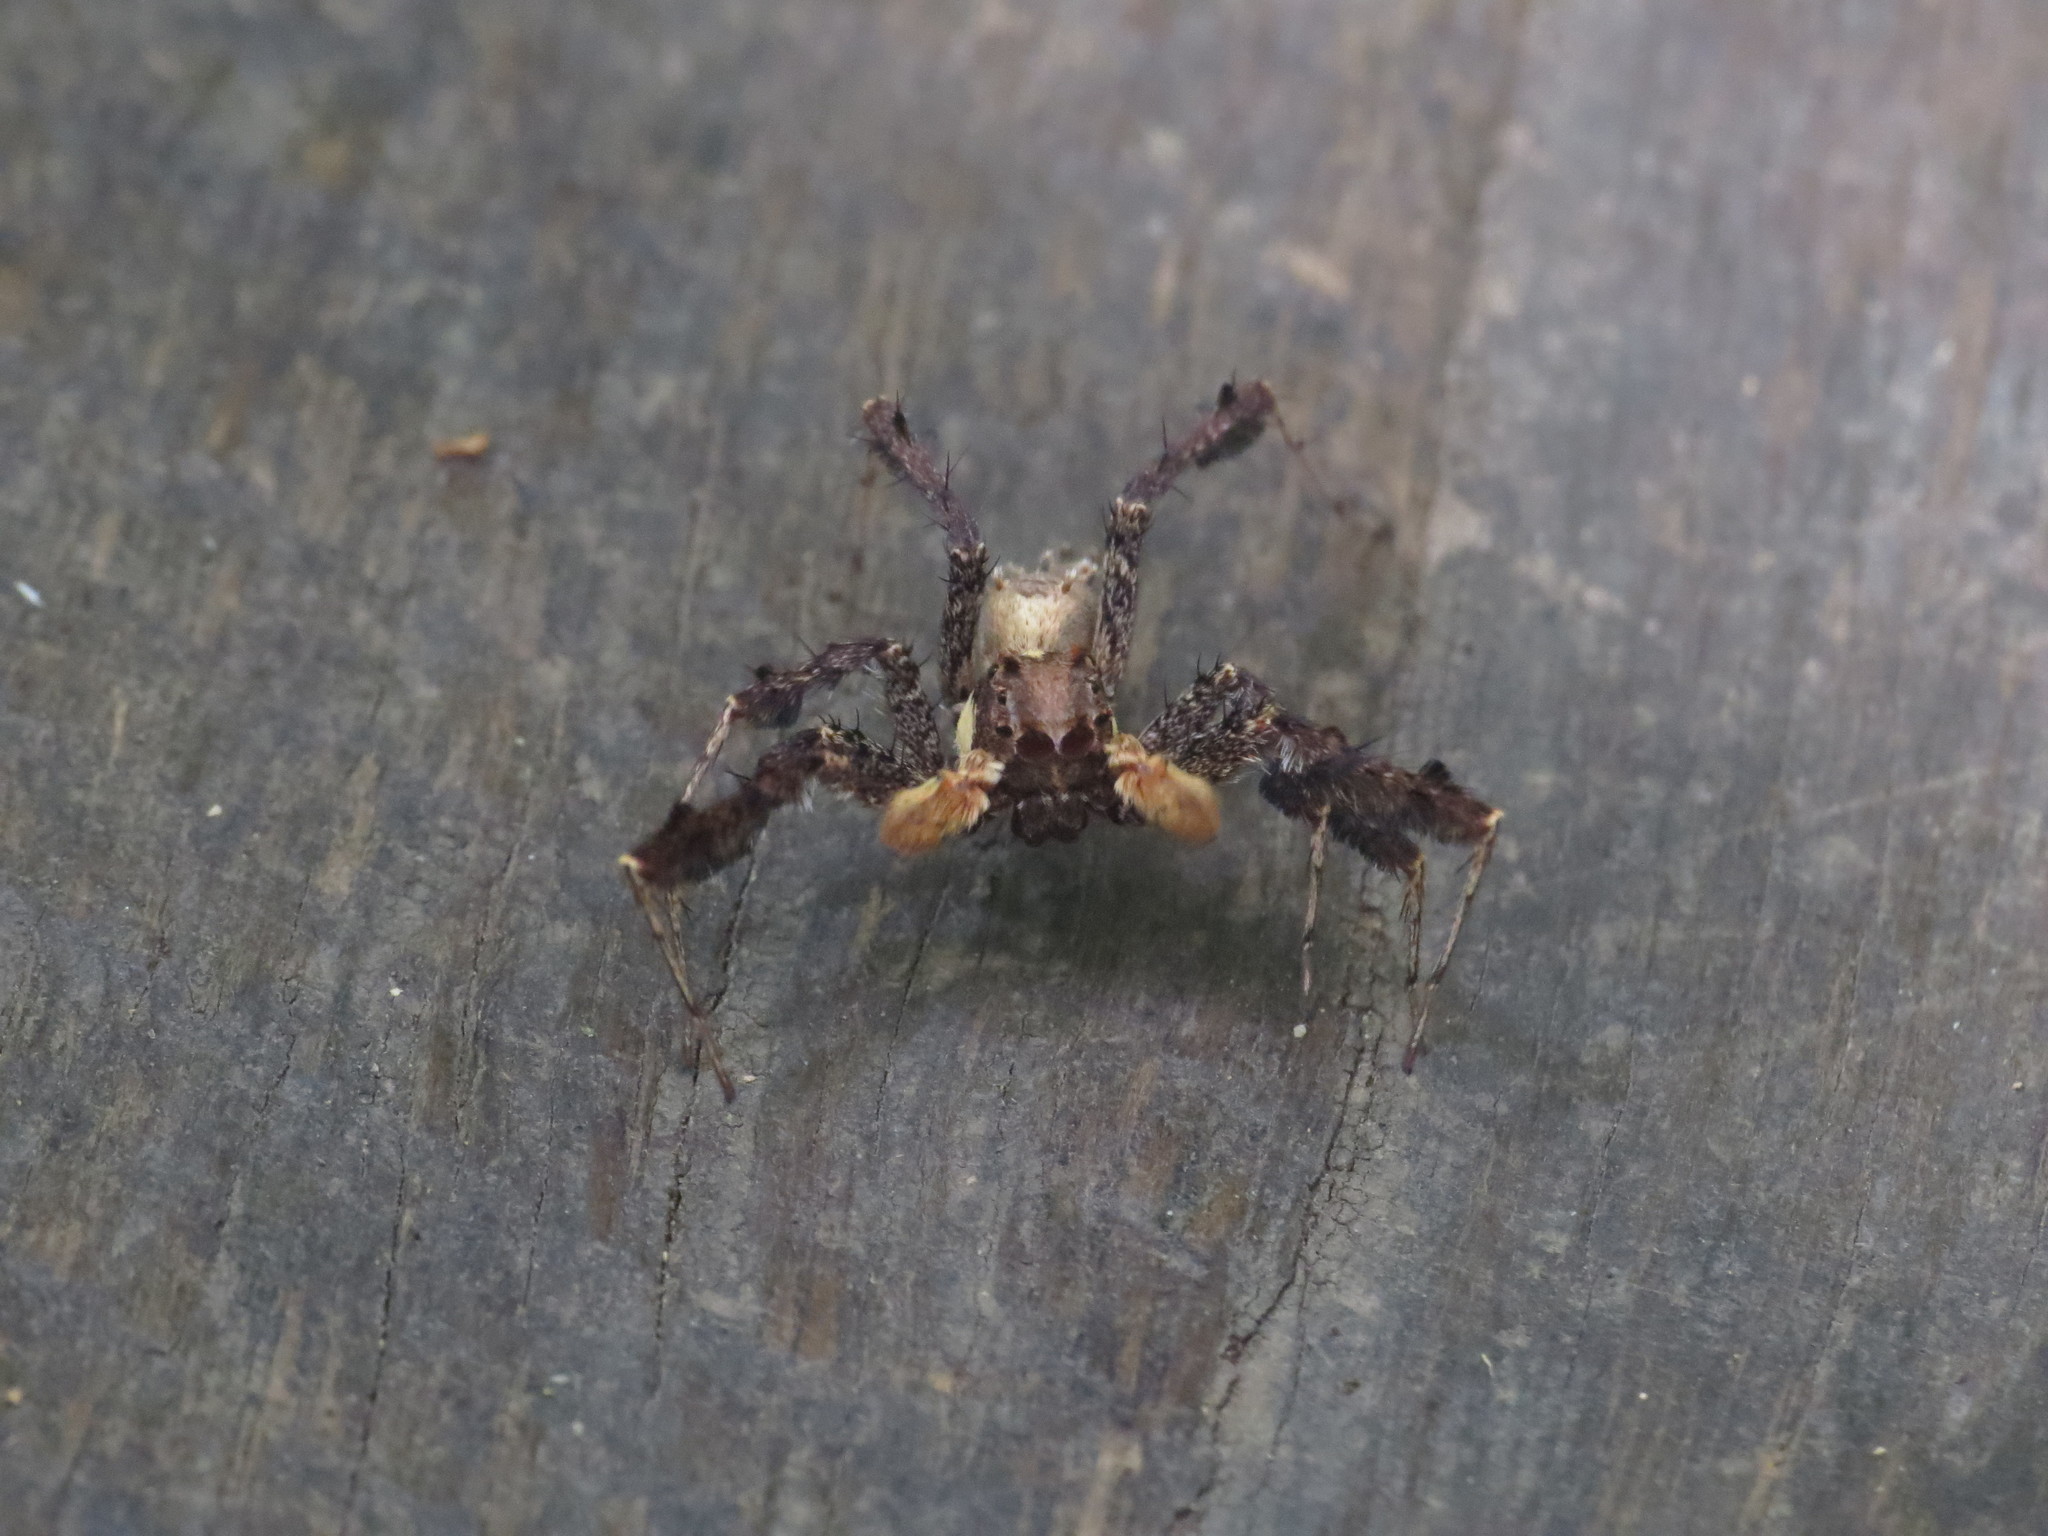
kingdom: Animalia
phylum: Arthropoda
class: Arachnida
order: Araneae
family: Salticidae
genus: Portia
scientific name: Portia fimbriata
